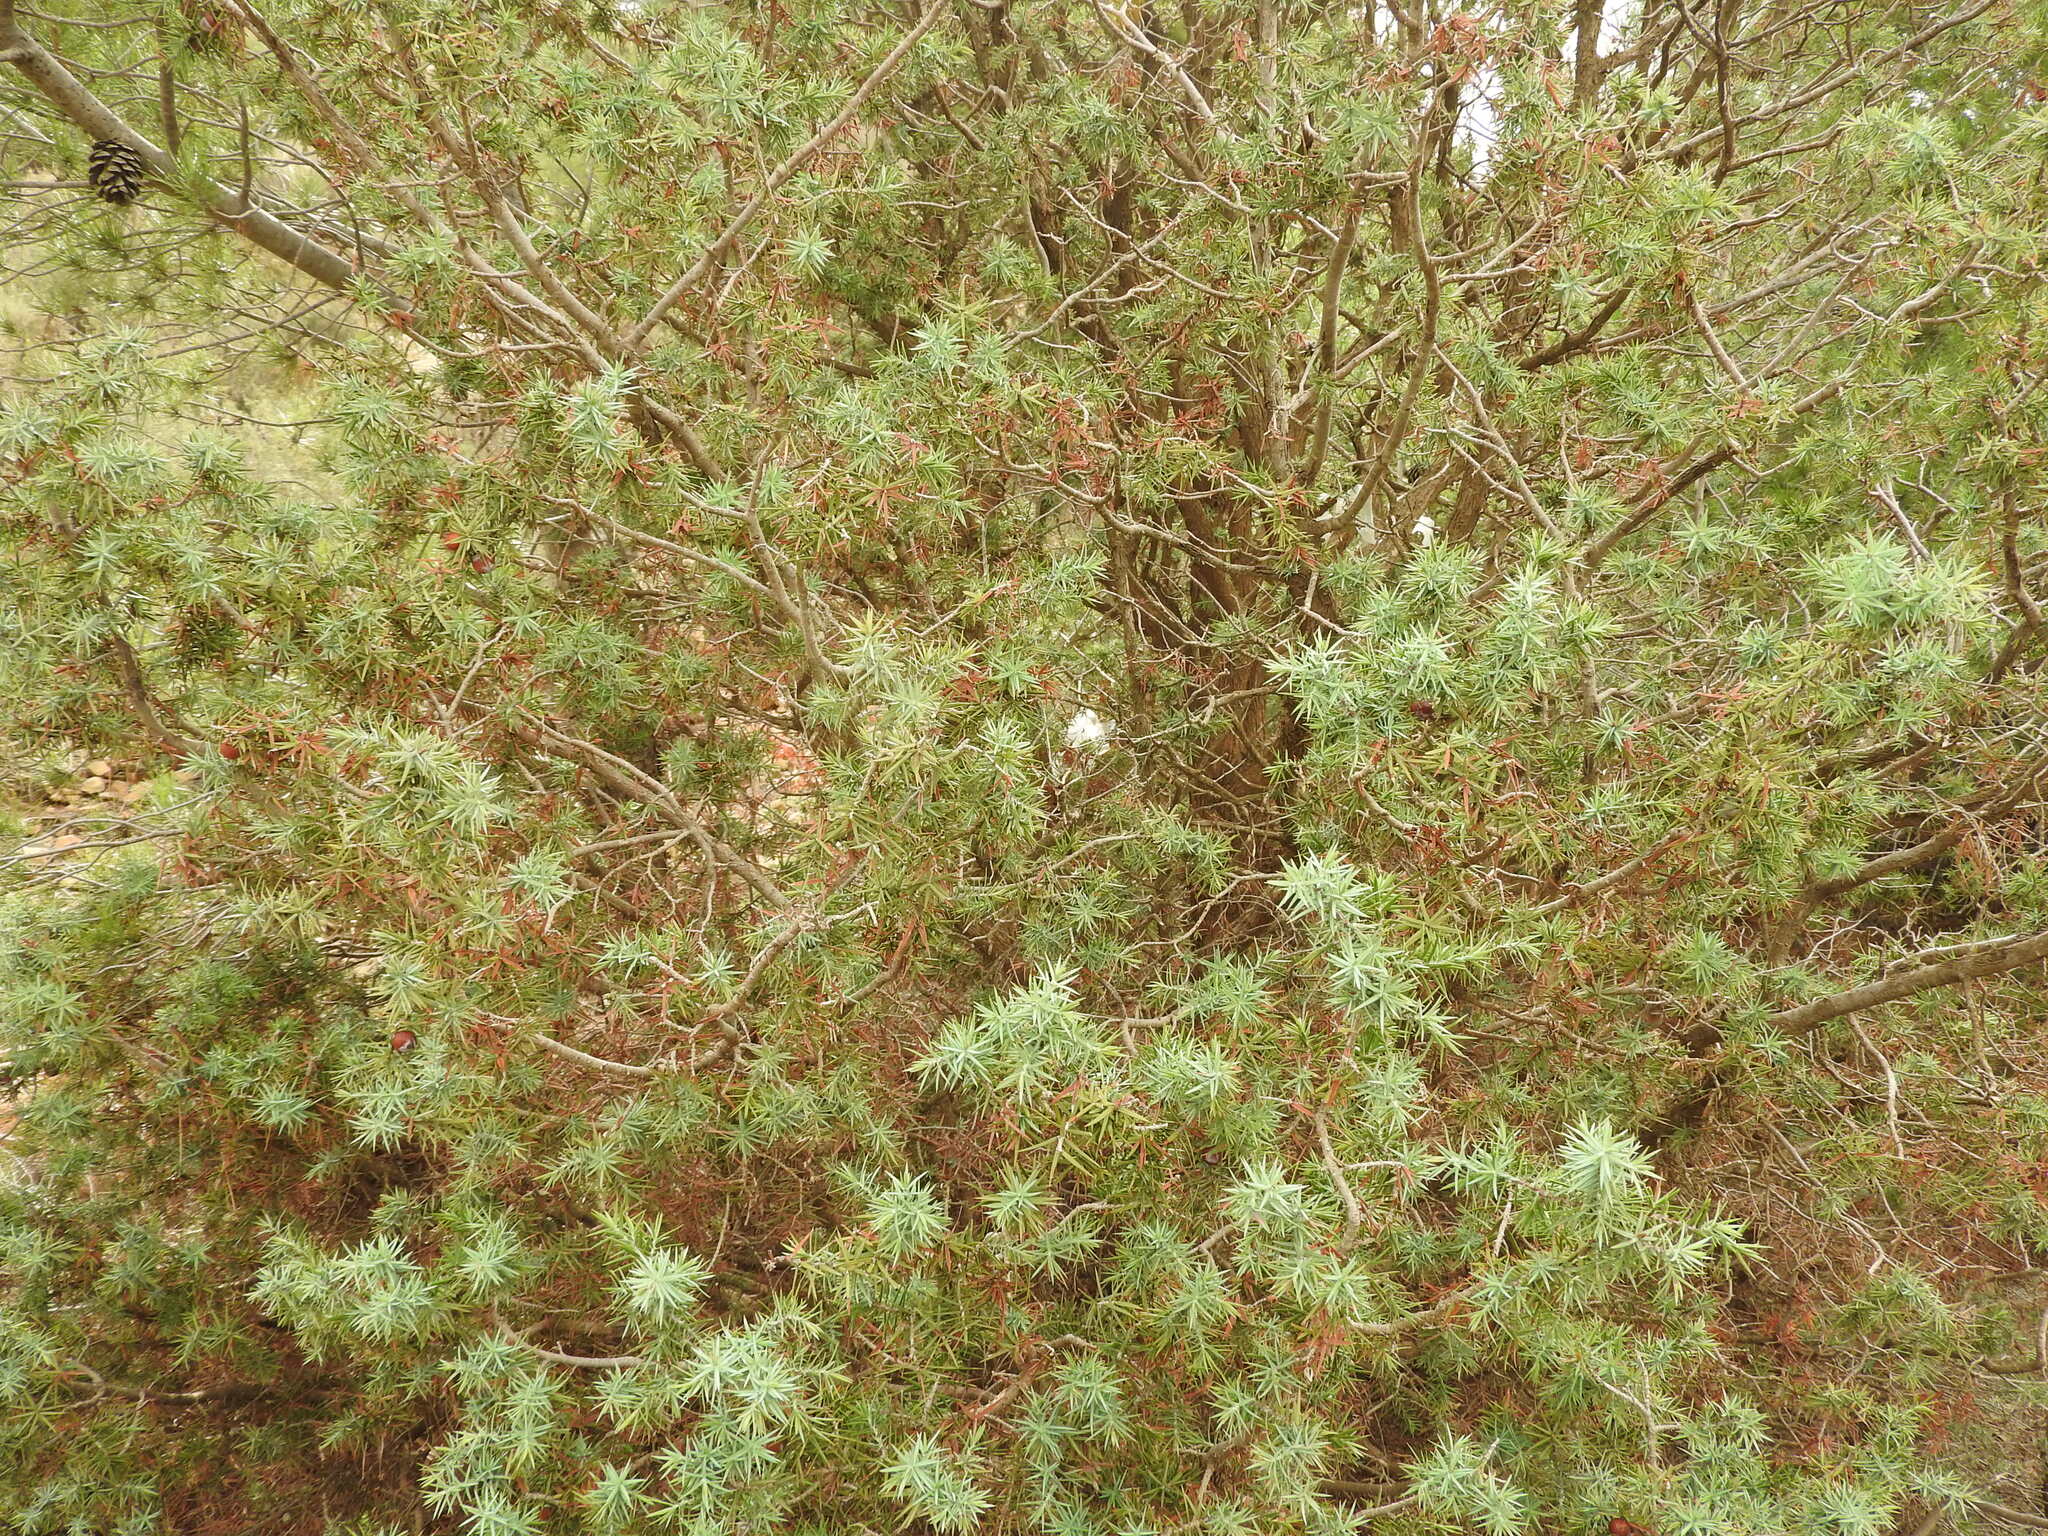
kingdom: Plantae
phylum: Tracheophyta
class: Pinopsida
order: Pinales
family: Cupressaceae
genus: Juniperus
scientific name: Juniperus oxycedrus
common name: Prickly juniper
